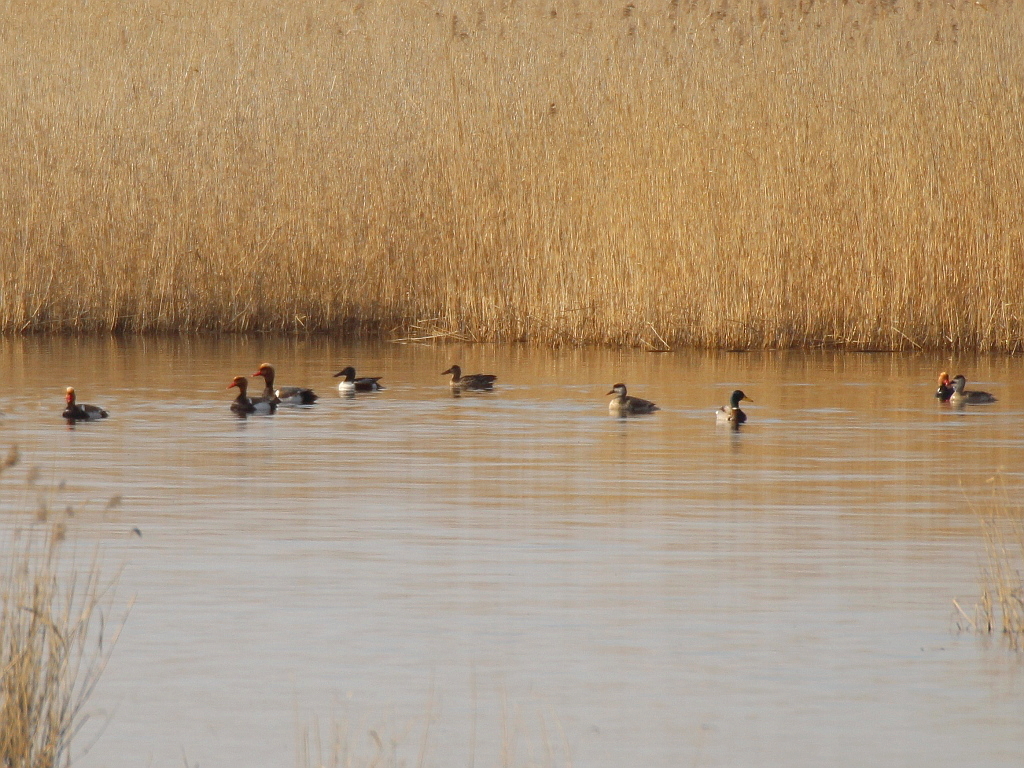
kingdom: Animalia
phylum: Chordata
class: Aves
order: Anseriformes
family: Anatidae
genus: Netta
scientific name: Netta rufina
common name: Red-crested pochard
